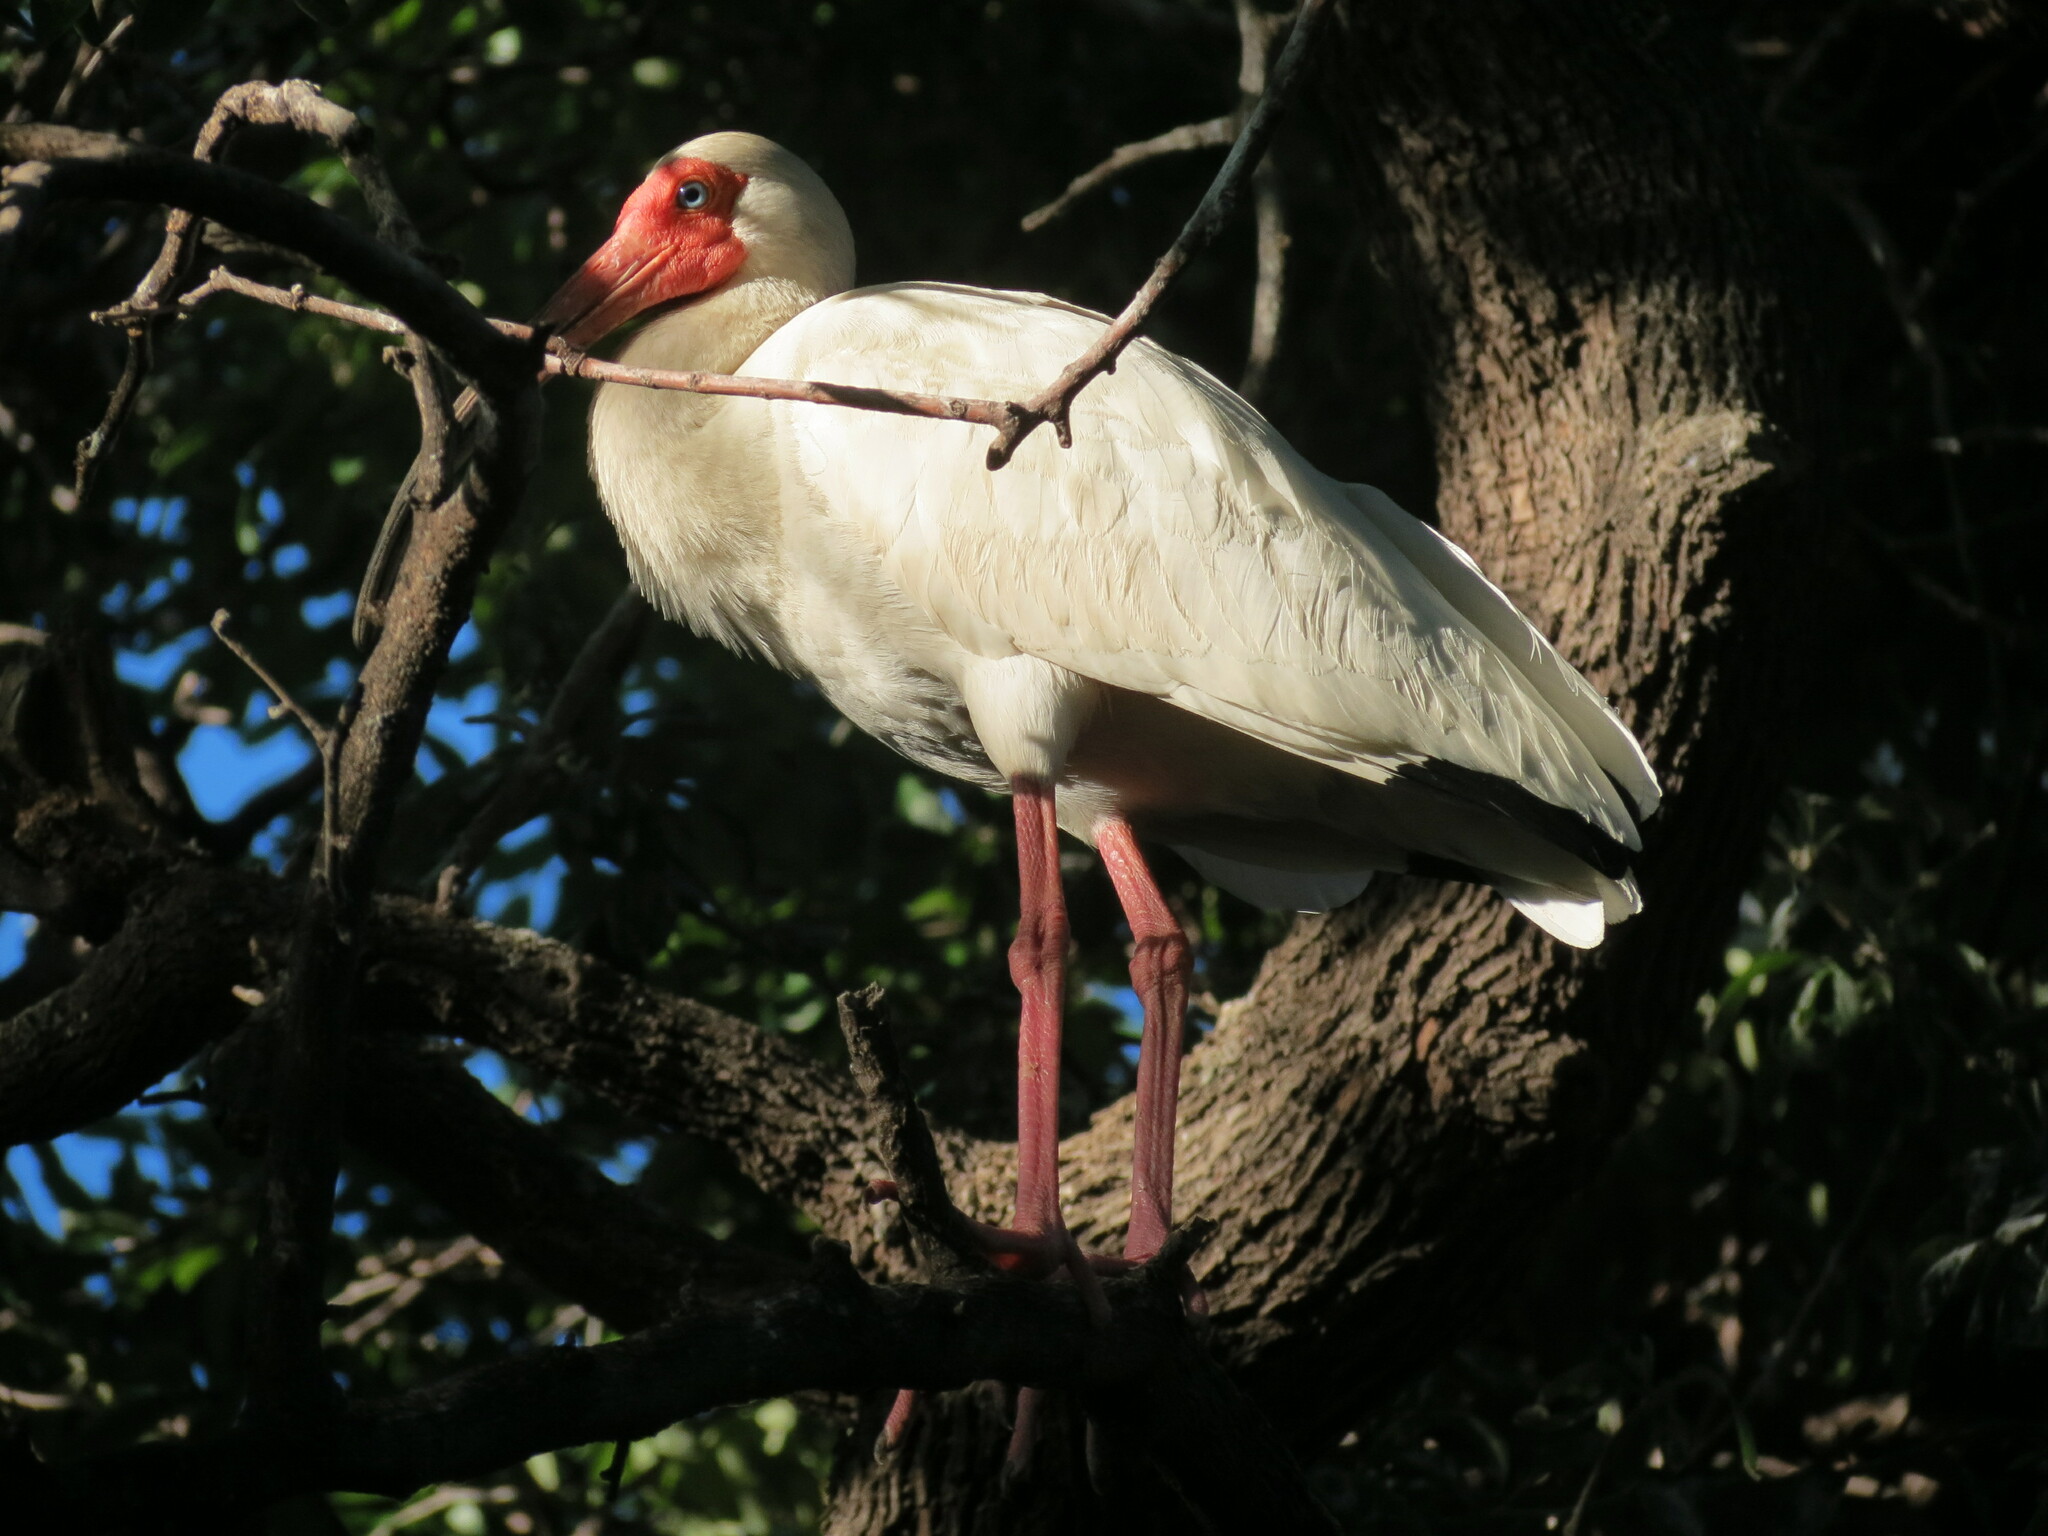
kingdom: Animalia
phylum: Chordata
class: Aves
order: Pelecaniformes
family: Threskiornithidae
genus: Eudocimus
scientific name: Eudocimus albus
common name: White ibis
